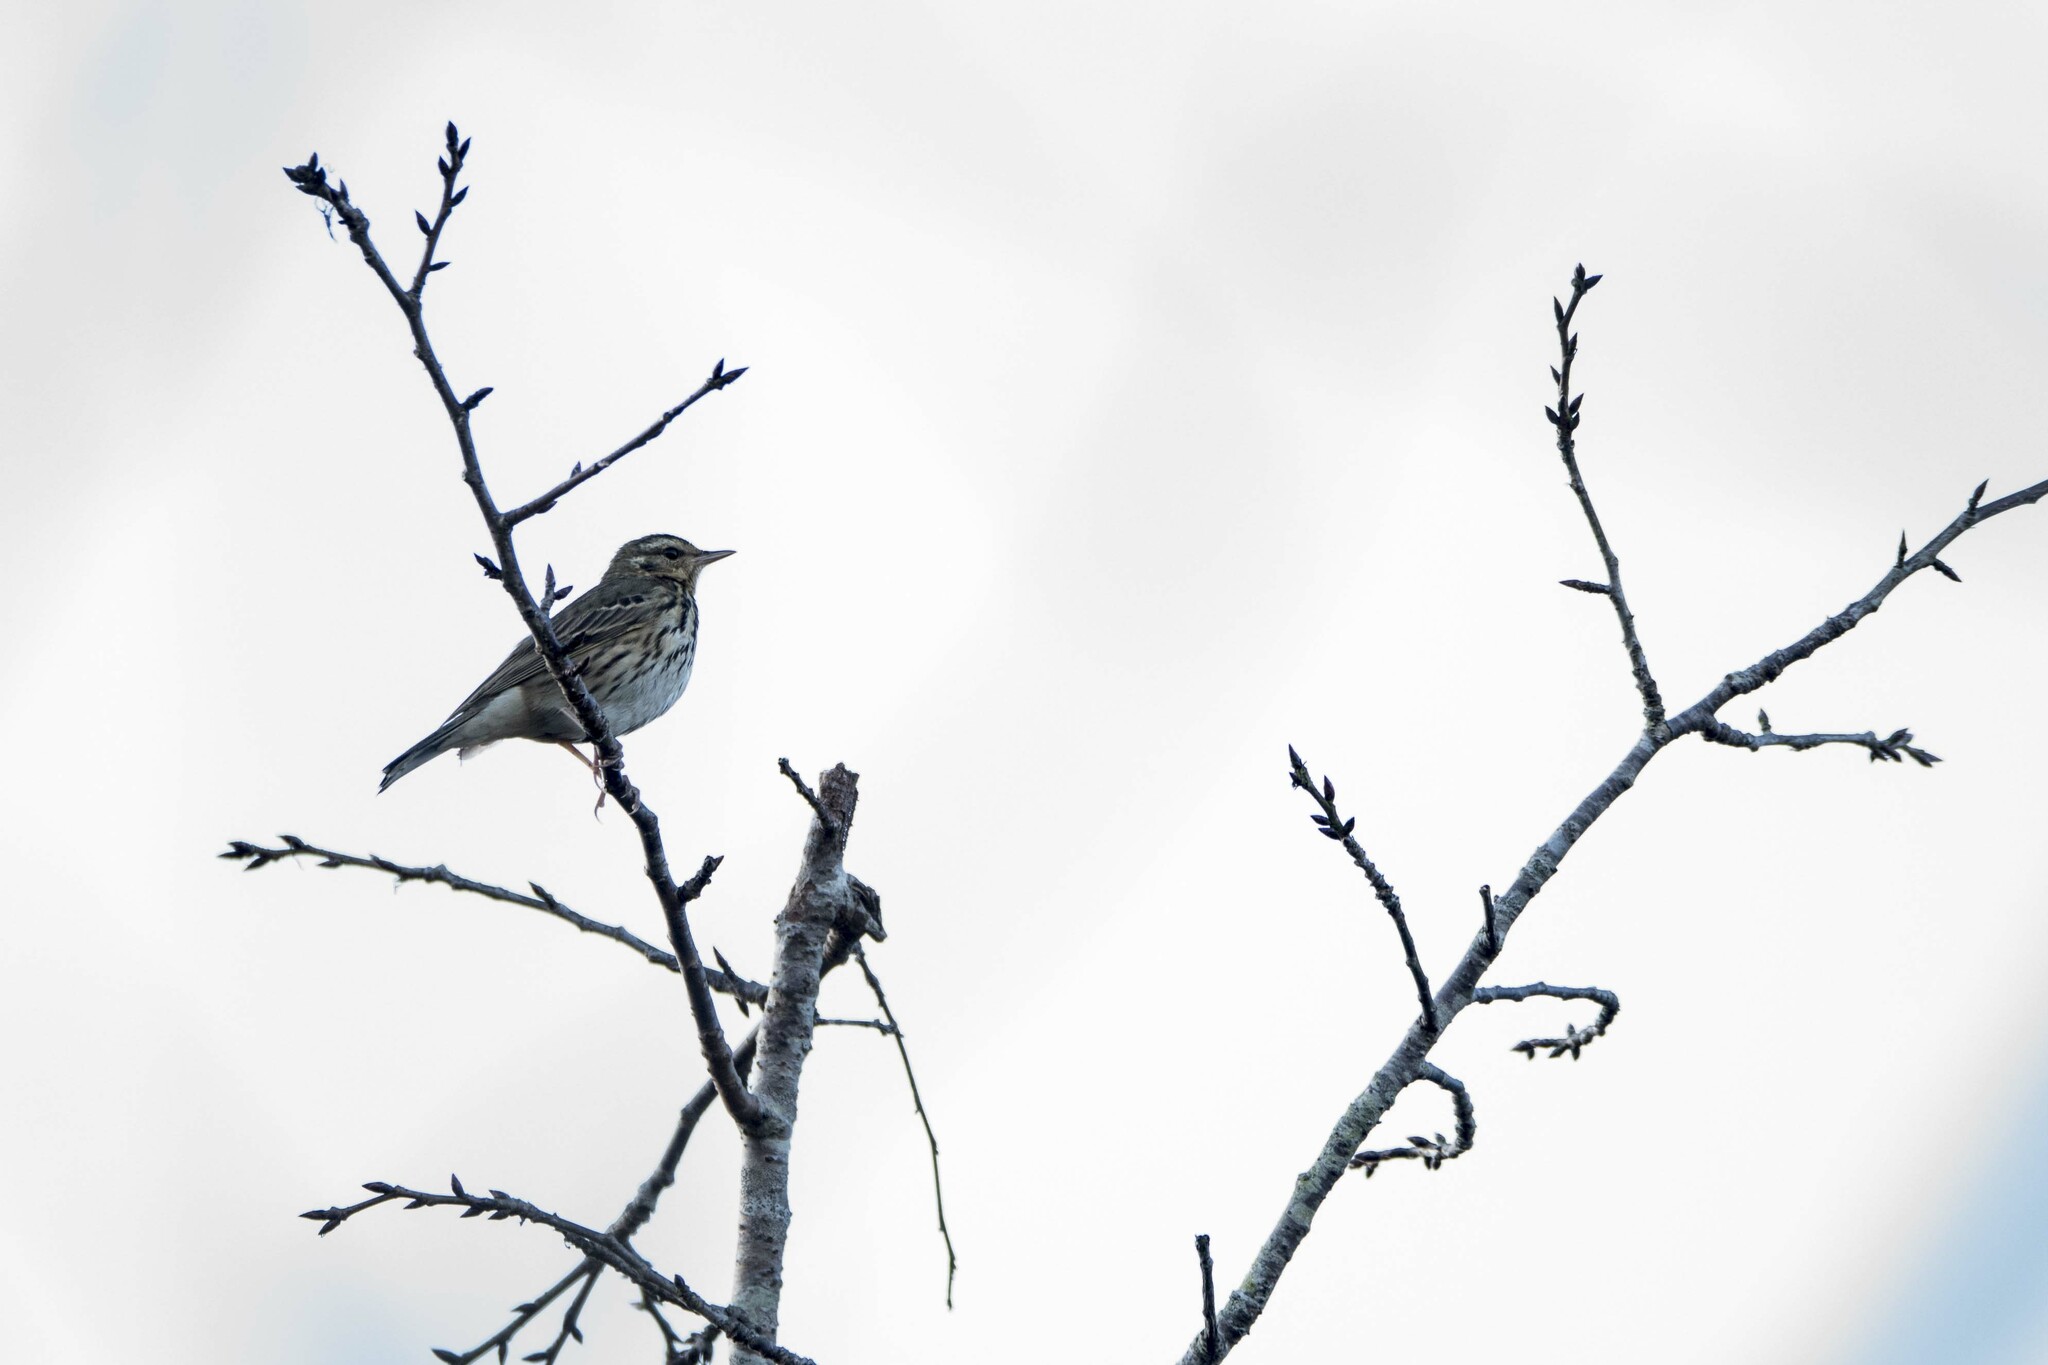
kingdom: Animalia
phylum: Chordata
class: Aves
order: Passeriformes
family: Motacillidae
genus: Anthus
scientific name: Anthus hodgsoni
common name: Olive-backed pipit
